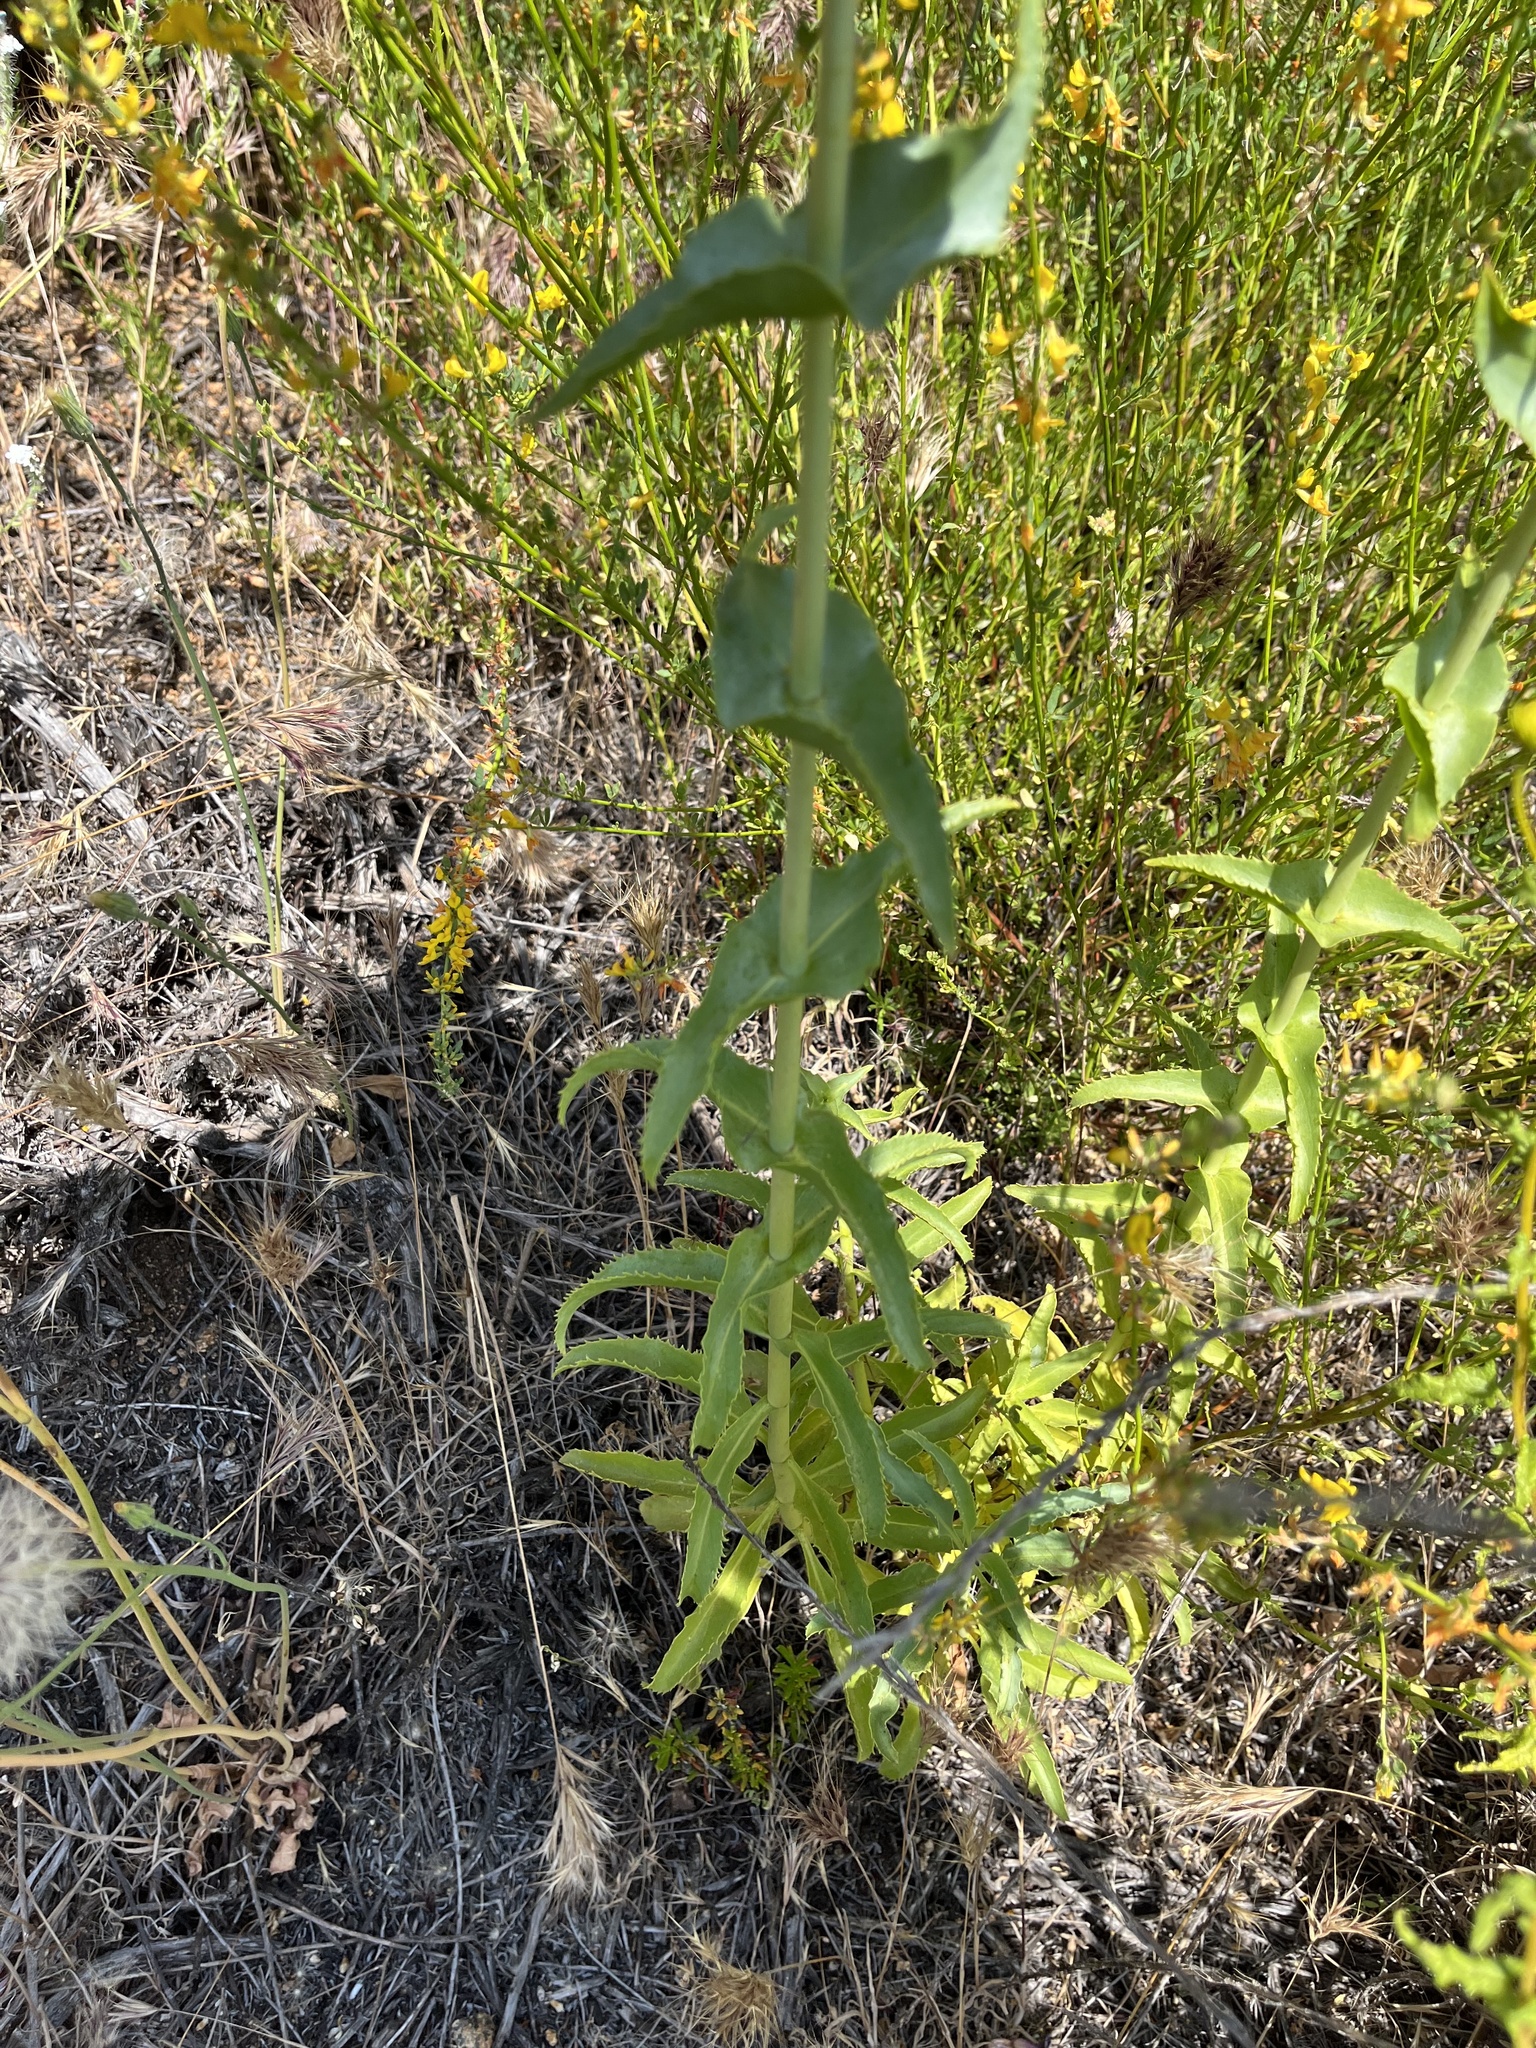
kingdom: Plantae
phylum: Tracheophyta
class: Magnoliopsida
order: Lamiales
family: Plantaginaceae
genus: Penstemon
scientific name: Penstemon spectabilis
